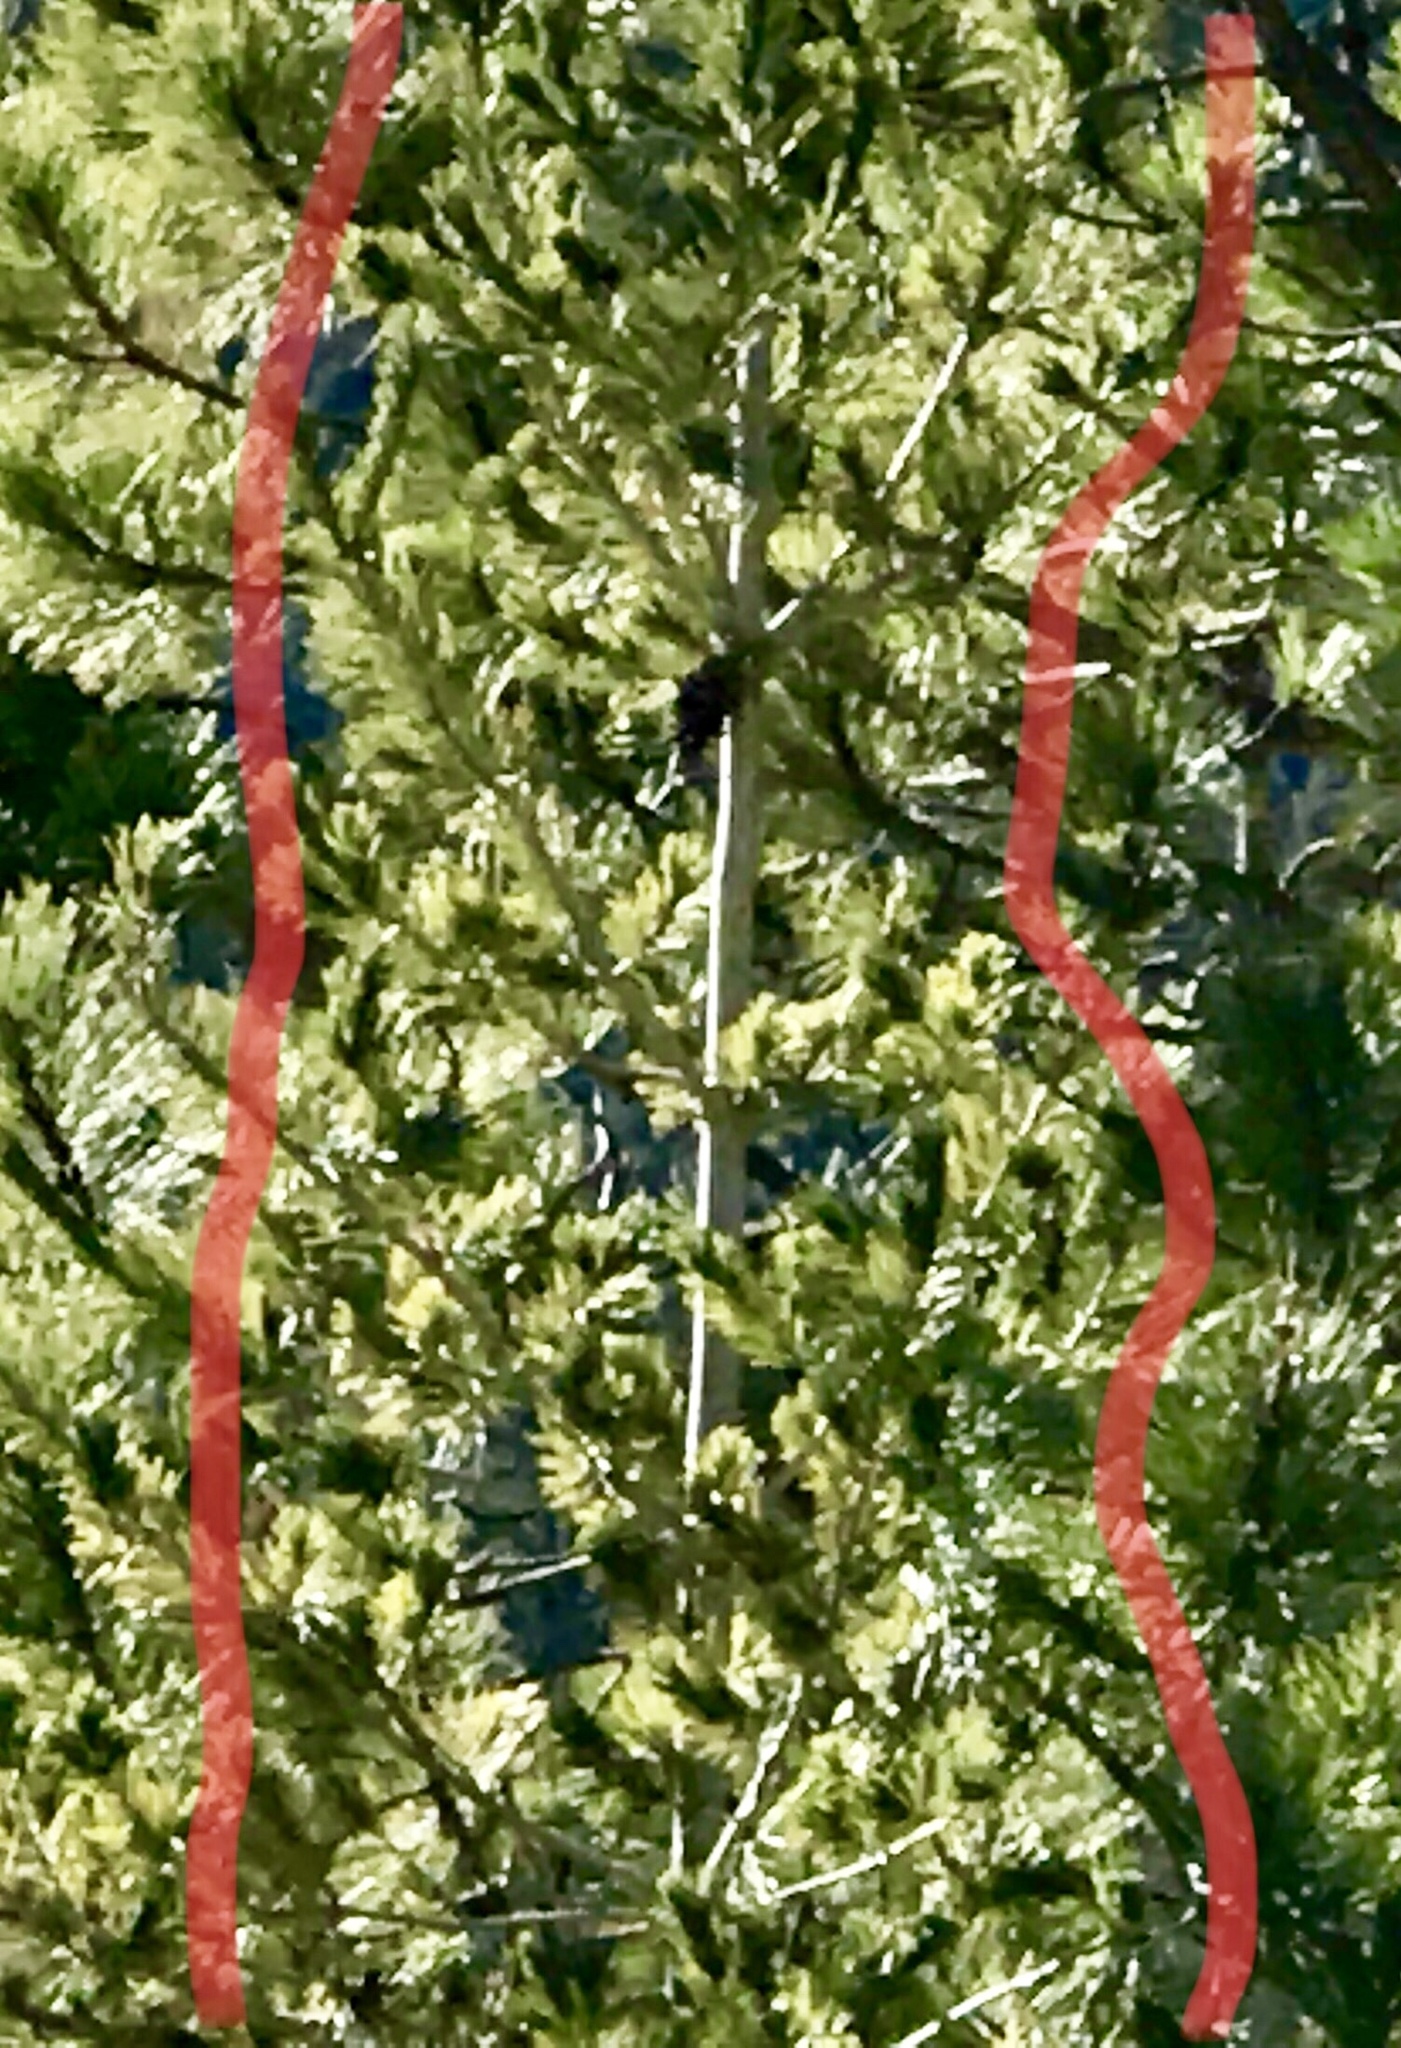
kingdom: Plantae
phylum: Tracheophyta
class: Pinopsida
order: Pinales
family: Pinaceae
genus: Pinus
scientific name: Pinus strobiformis
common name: Southwestern white pine
